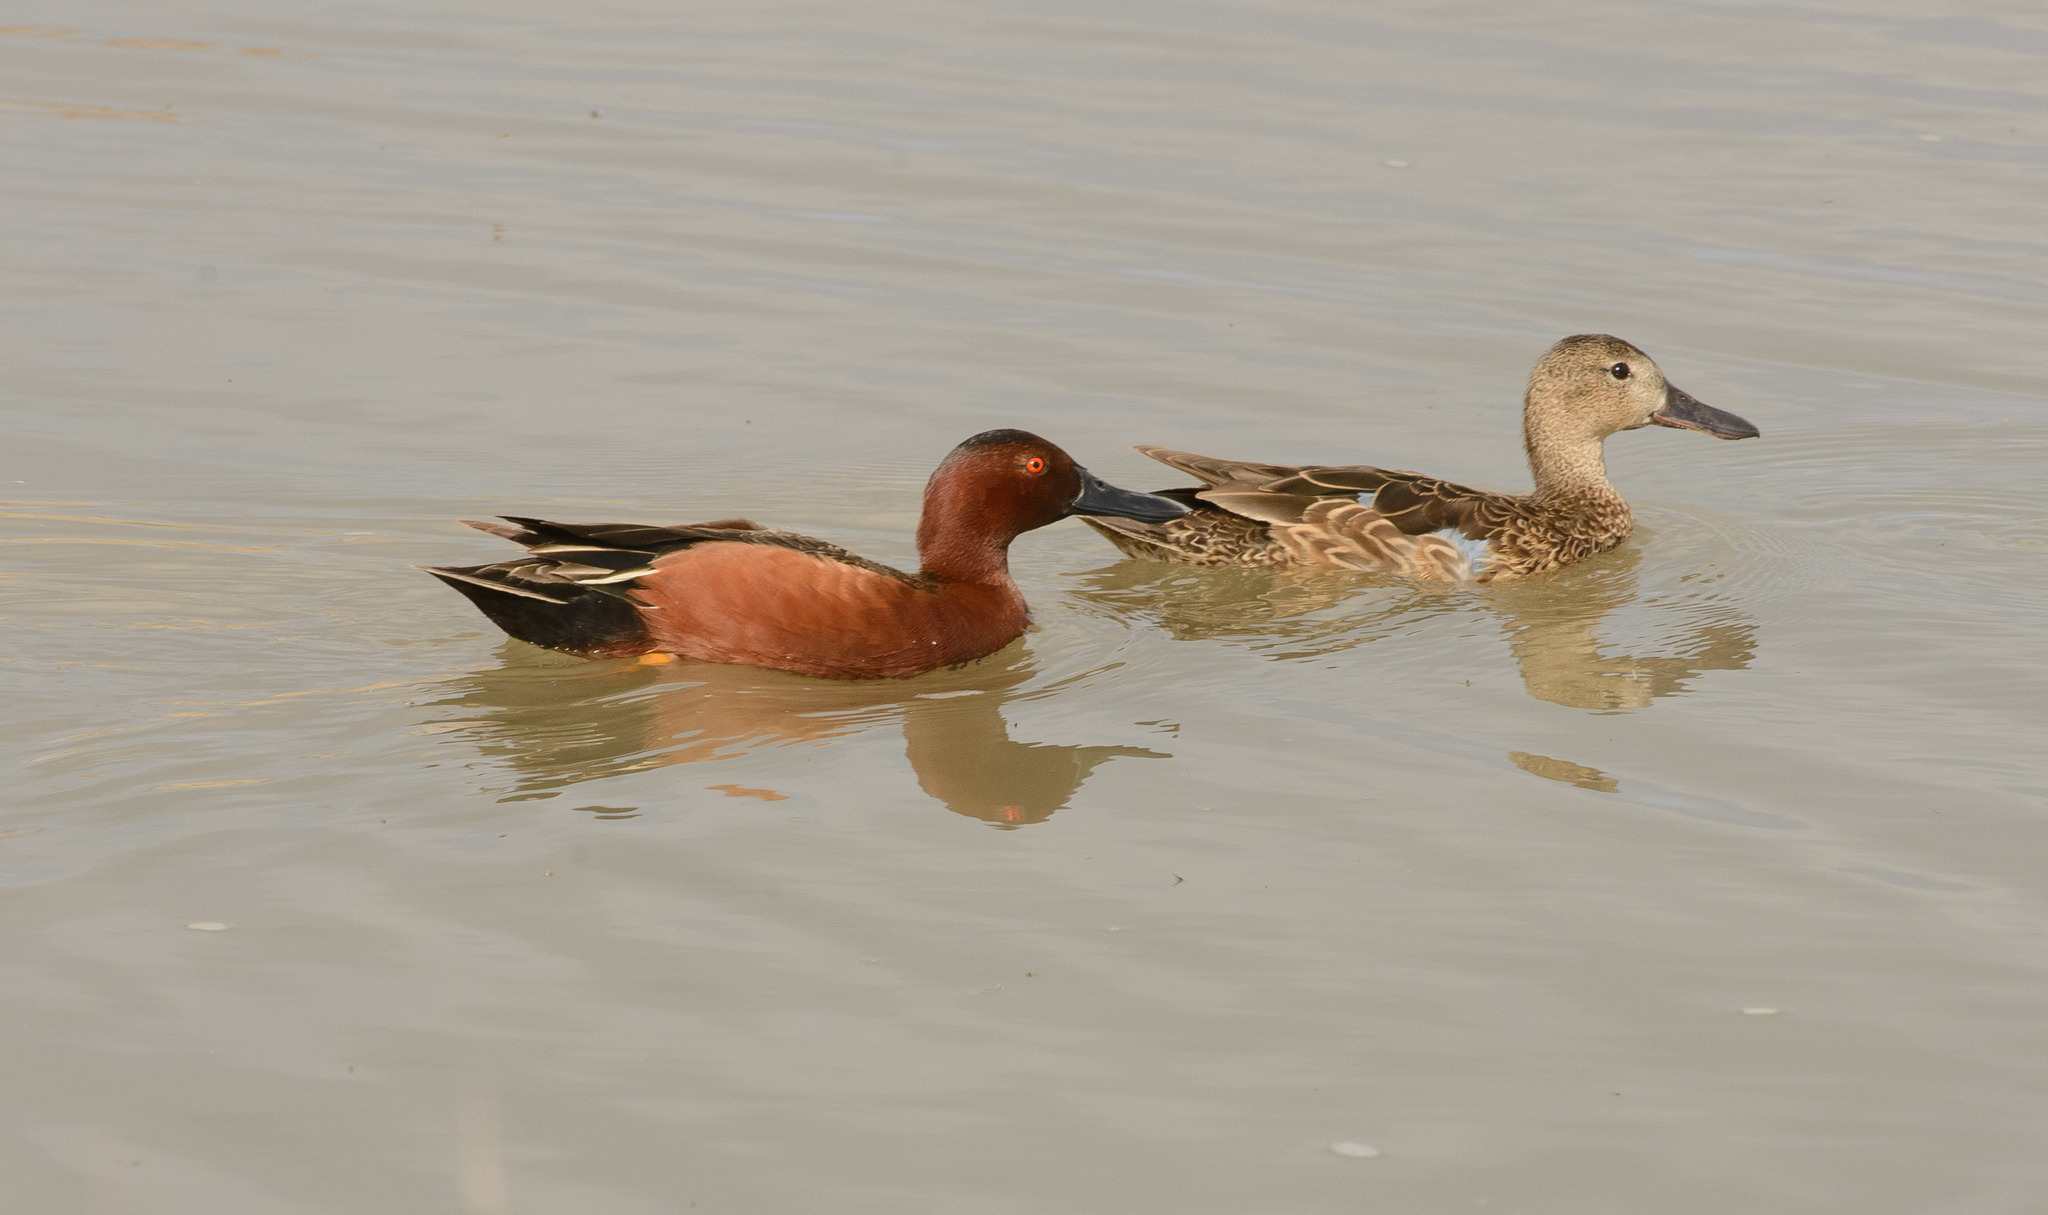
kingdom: Animalia
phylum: Chordata
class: Aves
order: Anseriformes
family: Anatidae
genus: Spatula
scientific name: Spatula cyanoptera
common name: Cinnamon teal
